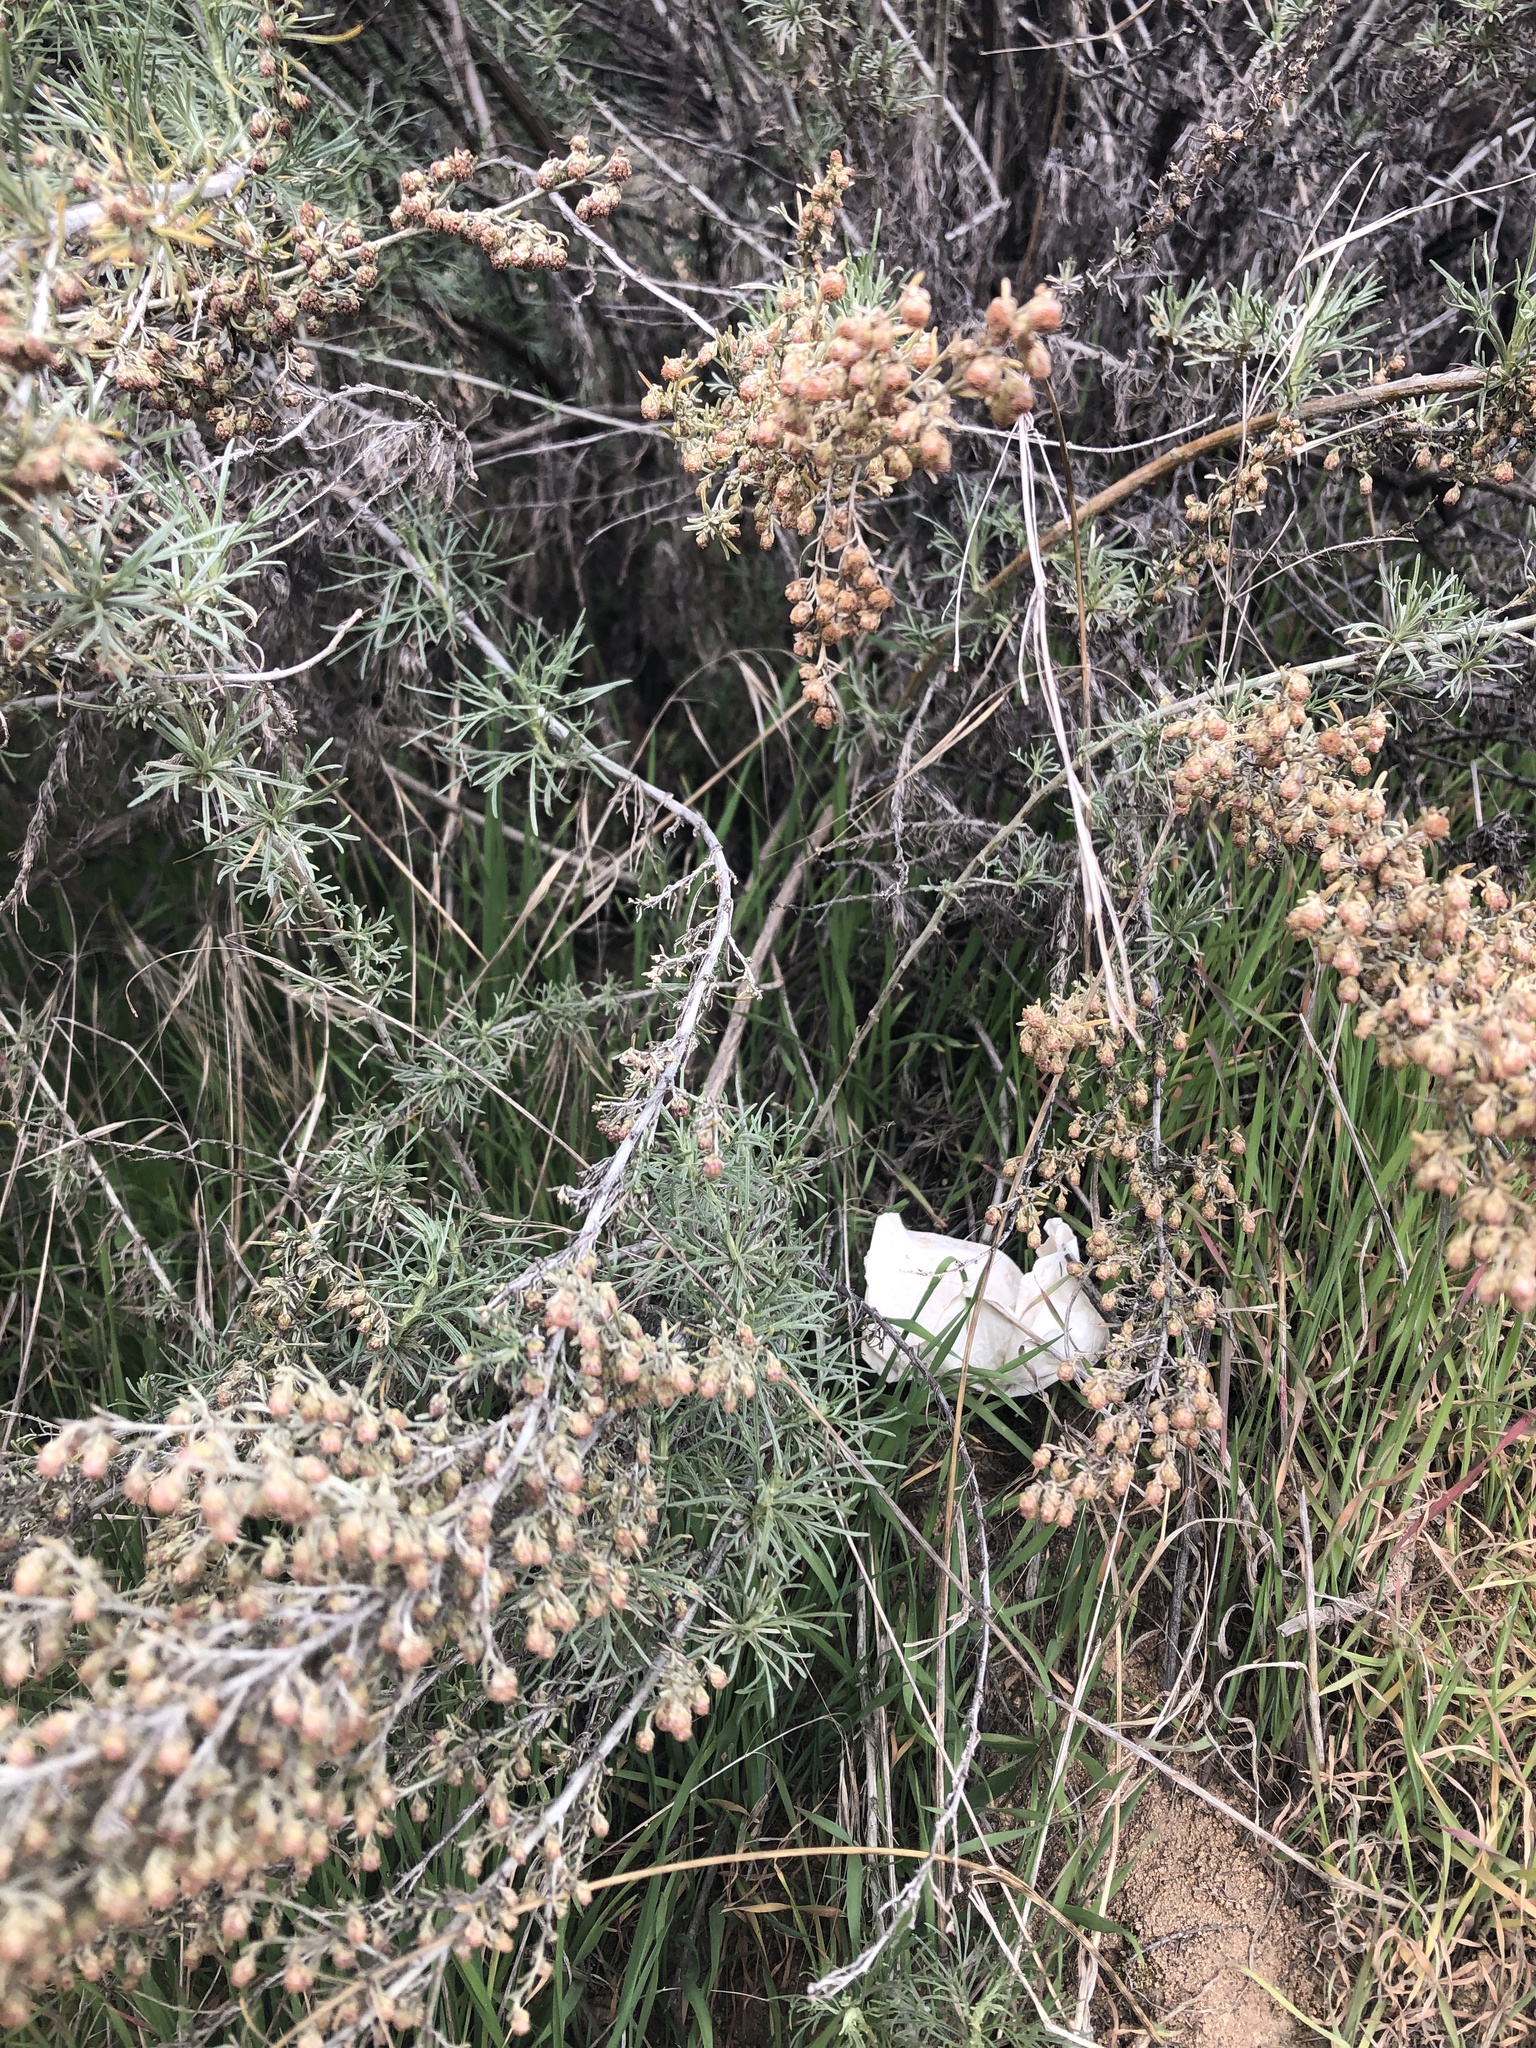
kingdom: Plantae
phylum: Tracheophyta
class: Magnoliopsida
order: Asterales
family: Asteraceae
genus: Artemisia
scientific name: Artemisia californica
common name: California sagebrush
